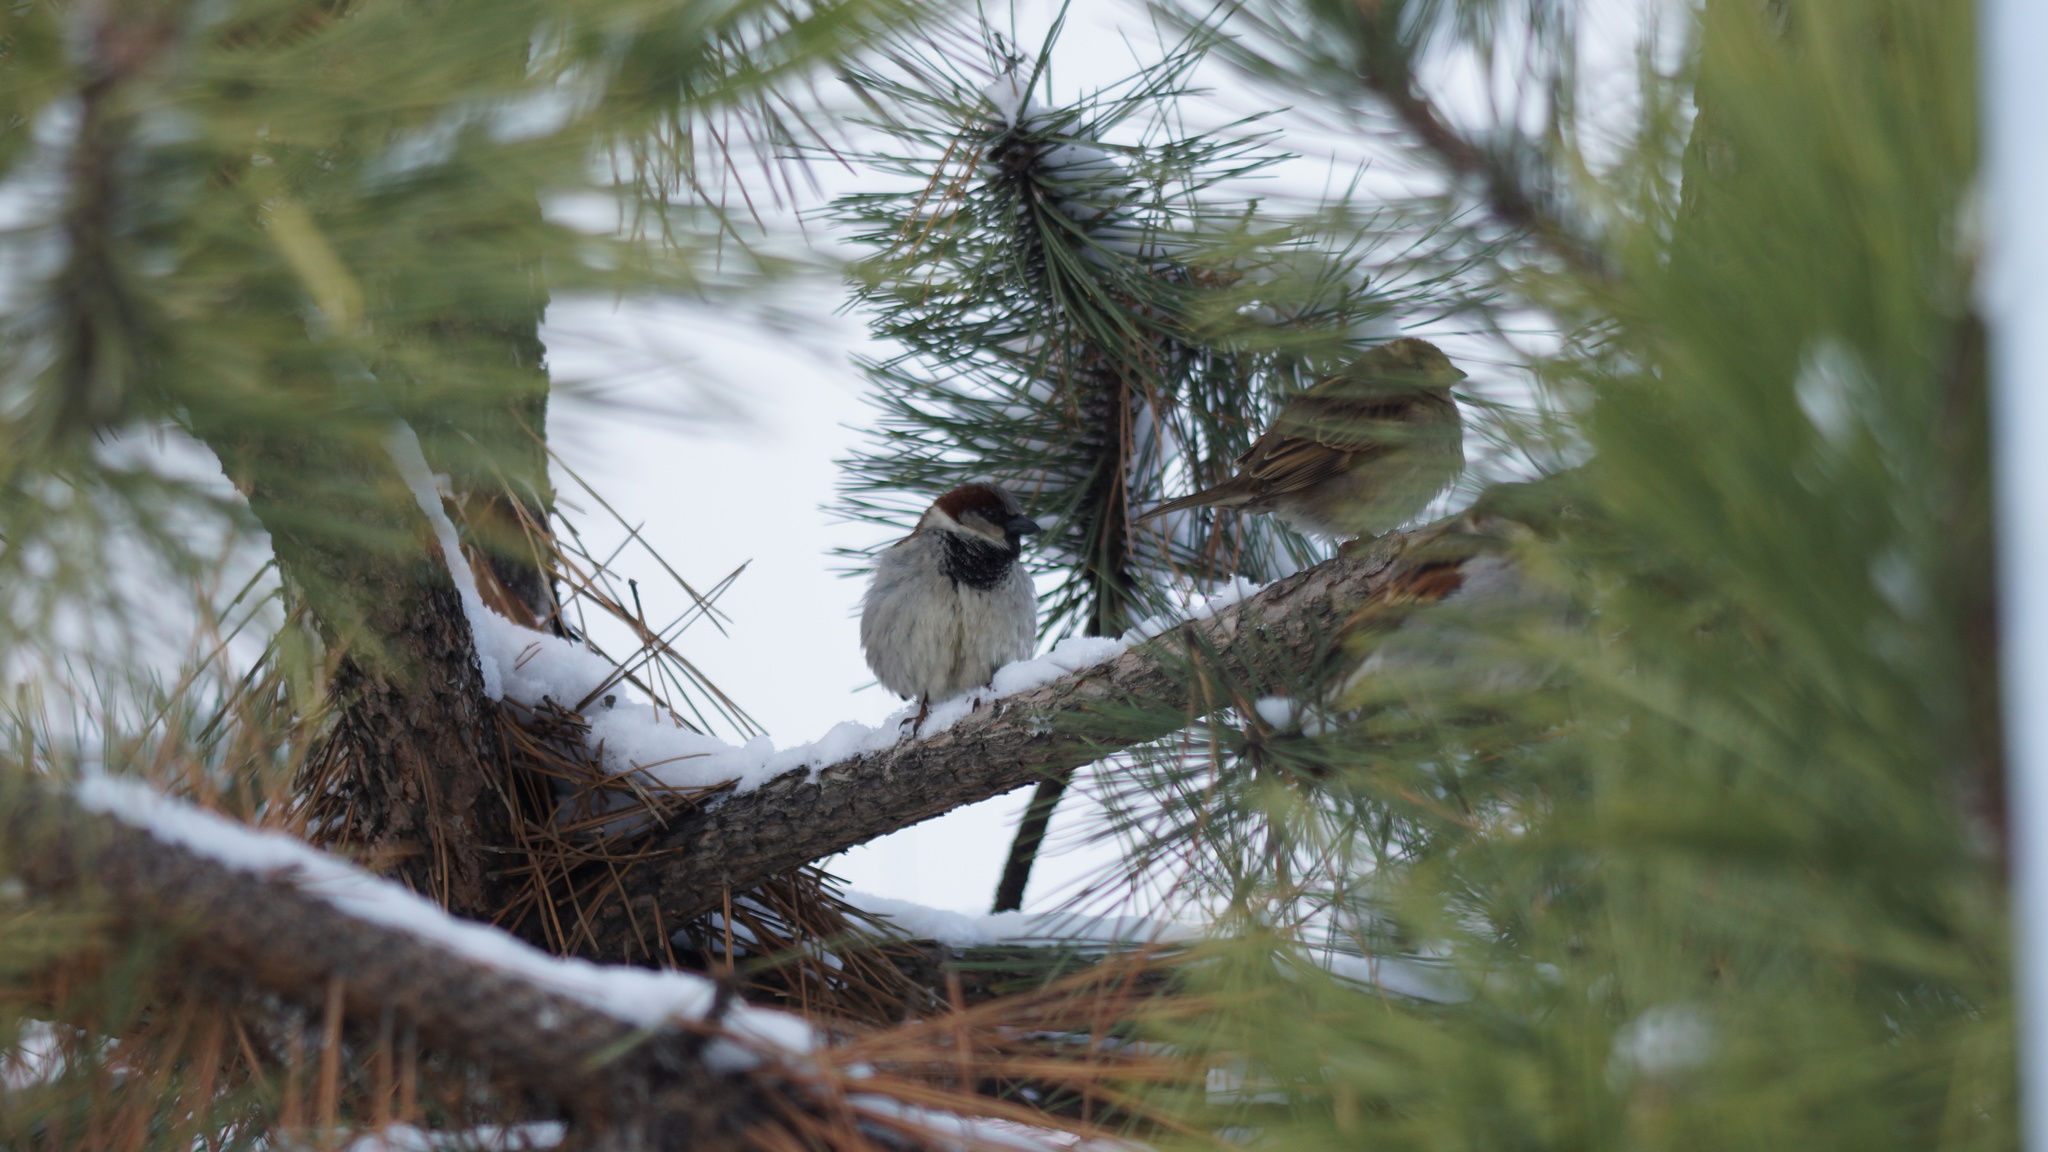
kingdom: Animalia
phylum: Chordata
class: Aves
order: Passeriformes
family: Passeridae
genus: Passer
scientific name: Passer domesticus
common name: House sparrow
